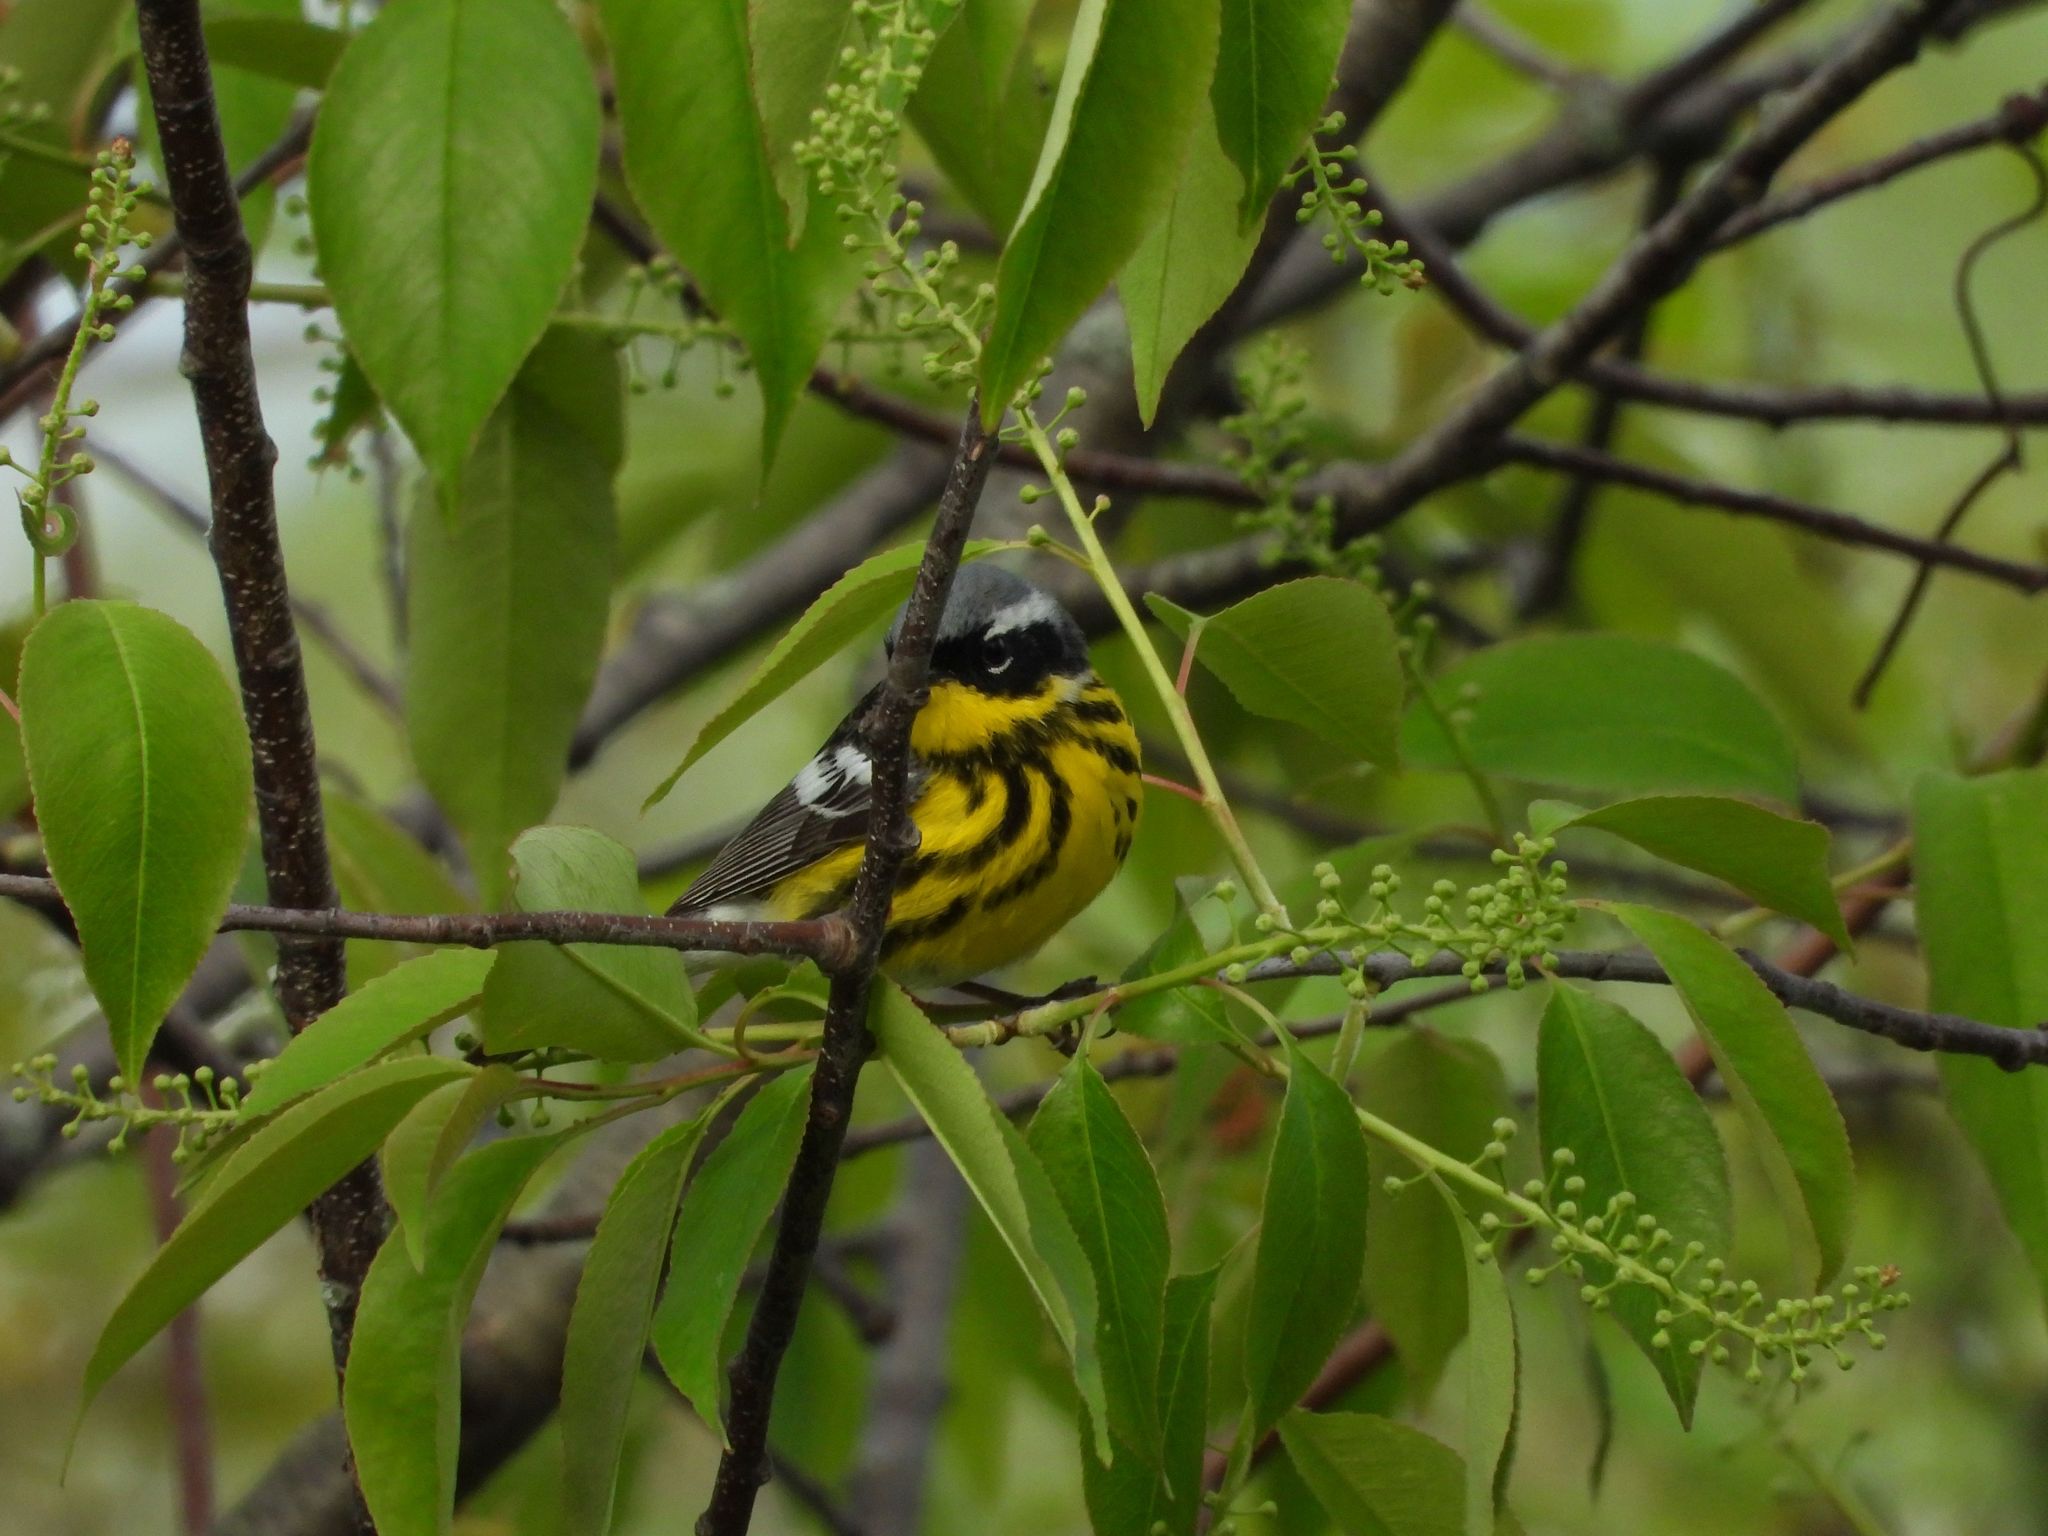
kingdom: Animalia
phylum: Chordata
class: Aves
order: Passeriformes
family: Parulidae
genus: Setophaga
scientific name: Setophaga magnolia
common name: Magnolia warbler
